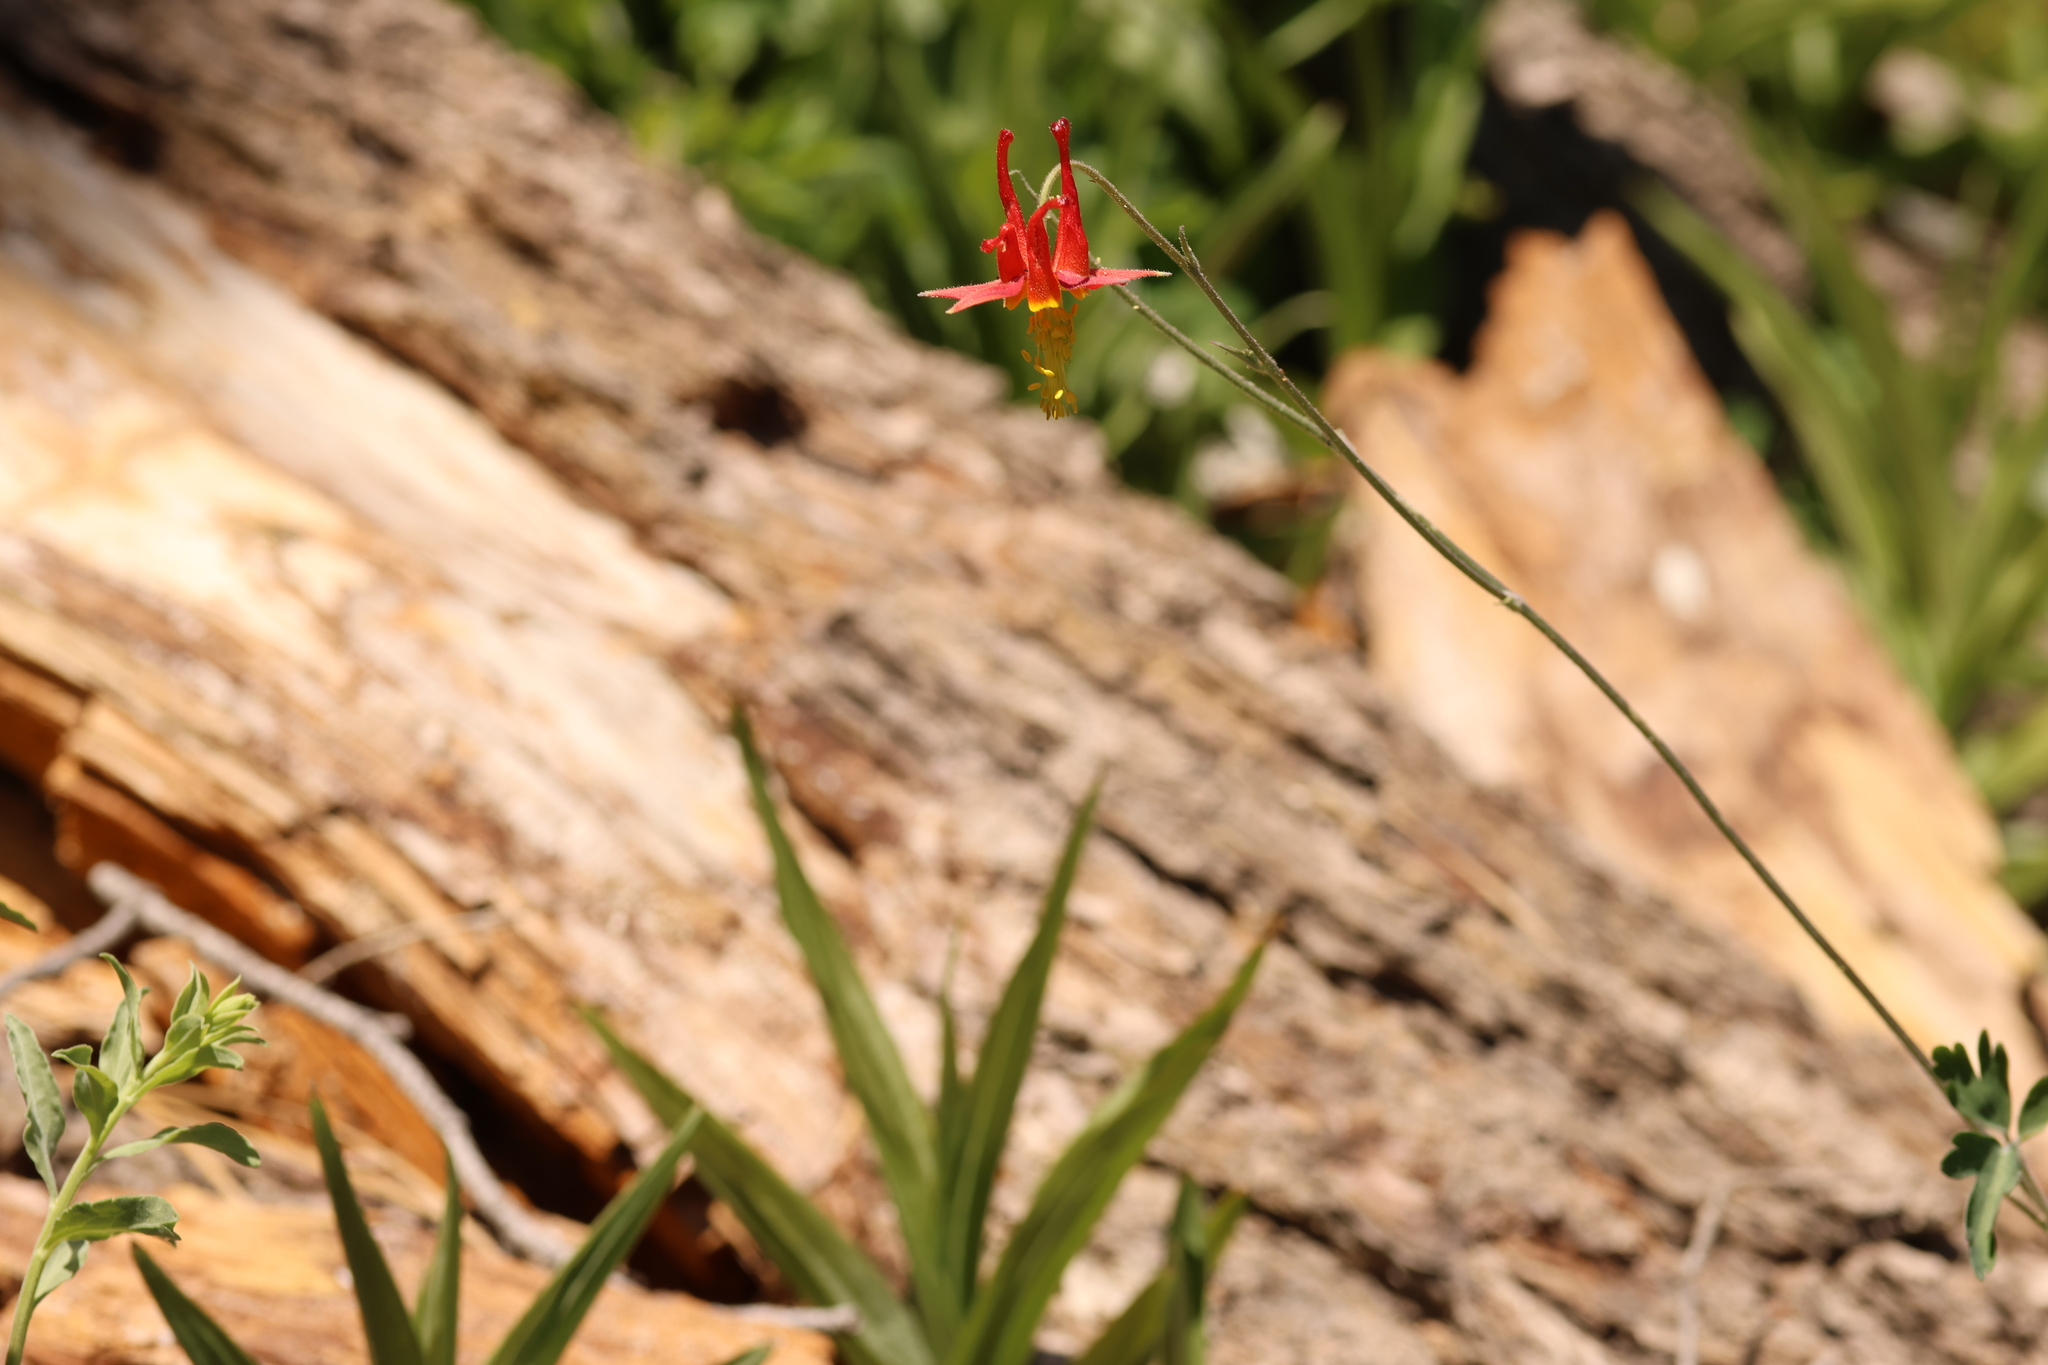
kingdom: Plantae
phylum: Tracheophyta
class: Magnoliopsida
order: Ranunculales
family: Ranunculaceae
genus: Aquilegia
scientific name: Aquilegia formosa
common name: Sitka columbine
